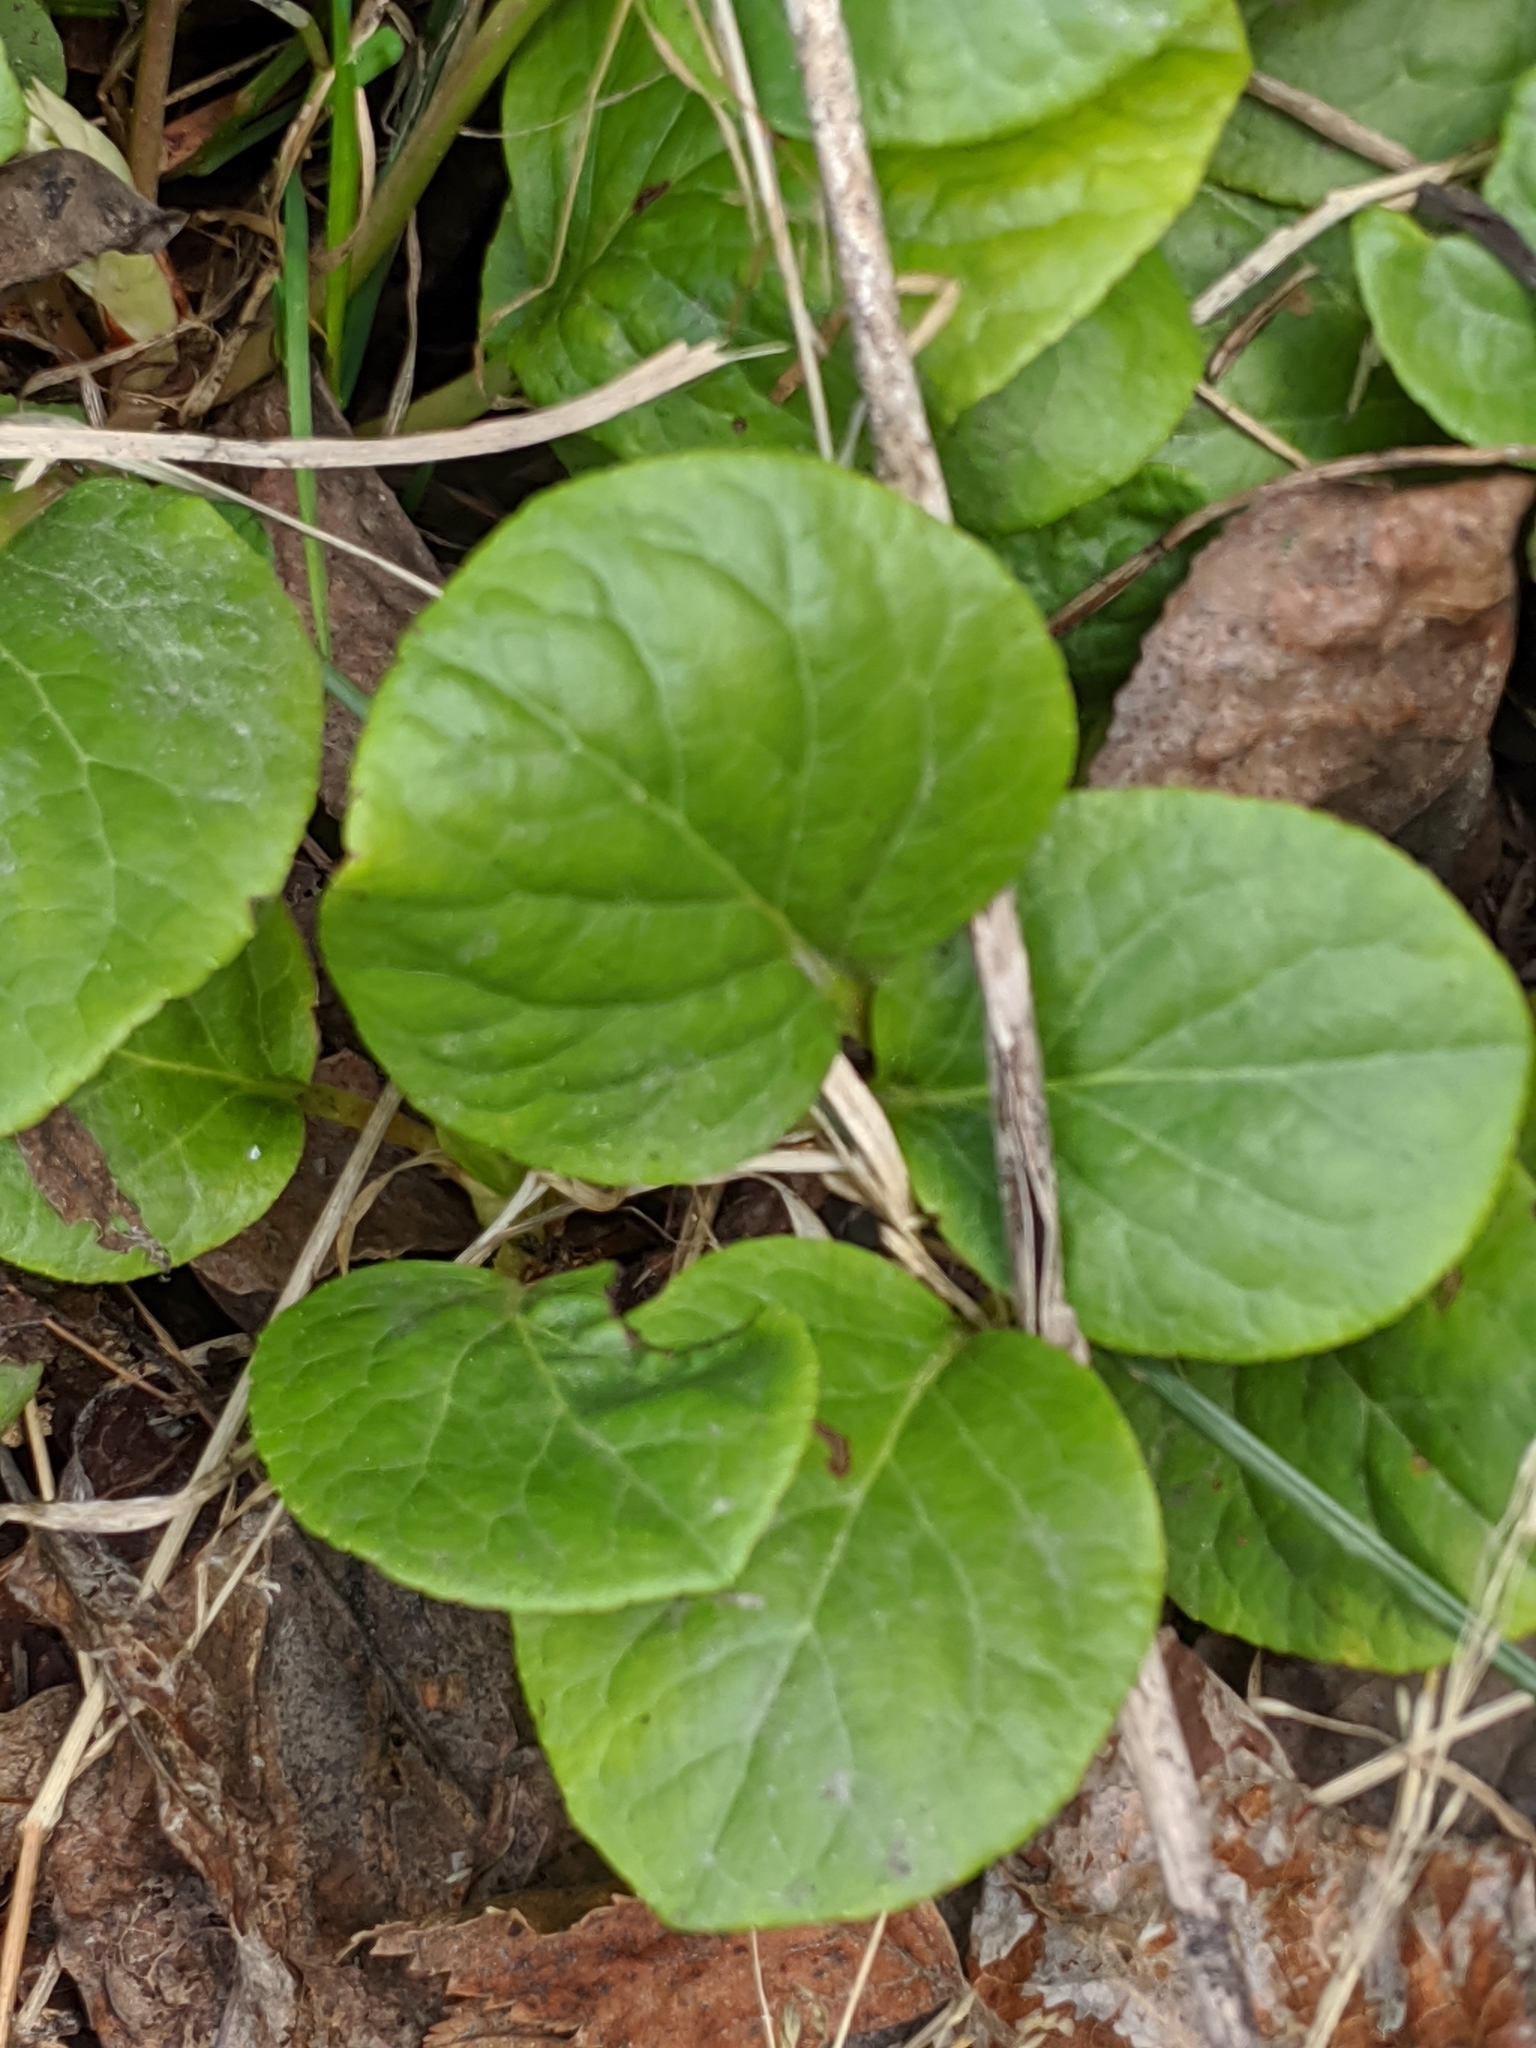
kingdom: Plantae
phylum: Tracheophyta
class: Magnoliopsida
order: Ericales
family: Ericaceae
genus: Pyrola
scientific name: Pyrola asarifolia
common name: Bog wintergreen
